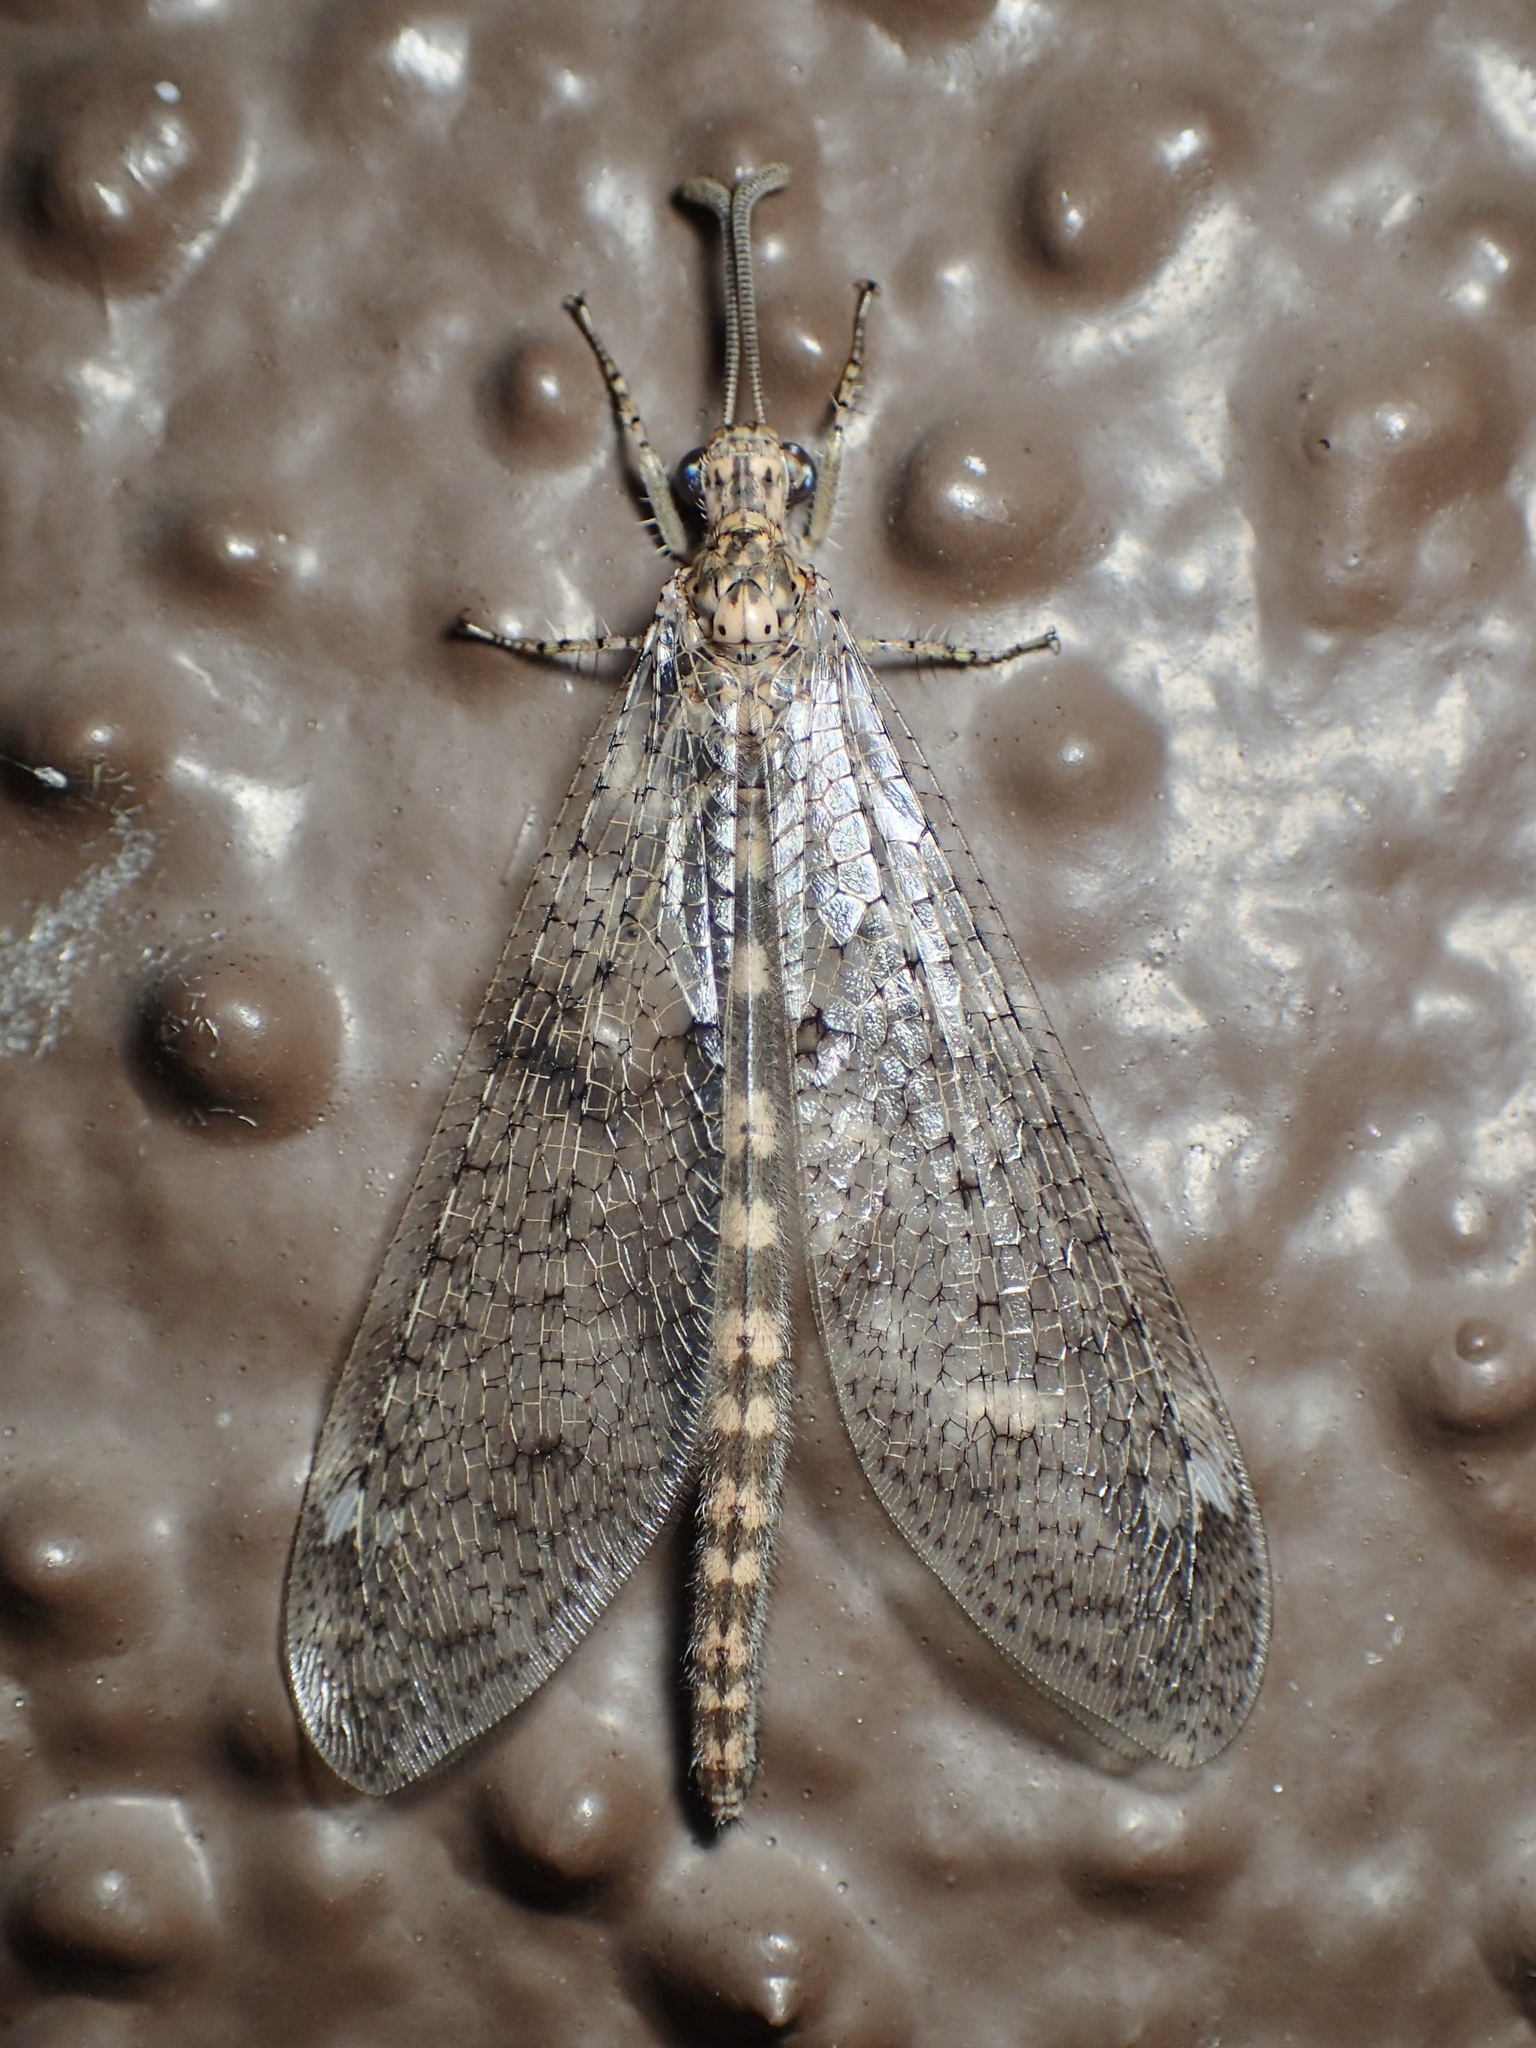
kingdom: Animalia
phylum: Arthropoda
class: Insecta
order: Neuroptera
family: Myrmeleontidae
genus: Brachynemurus
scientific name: Brachynemurus sackeni
